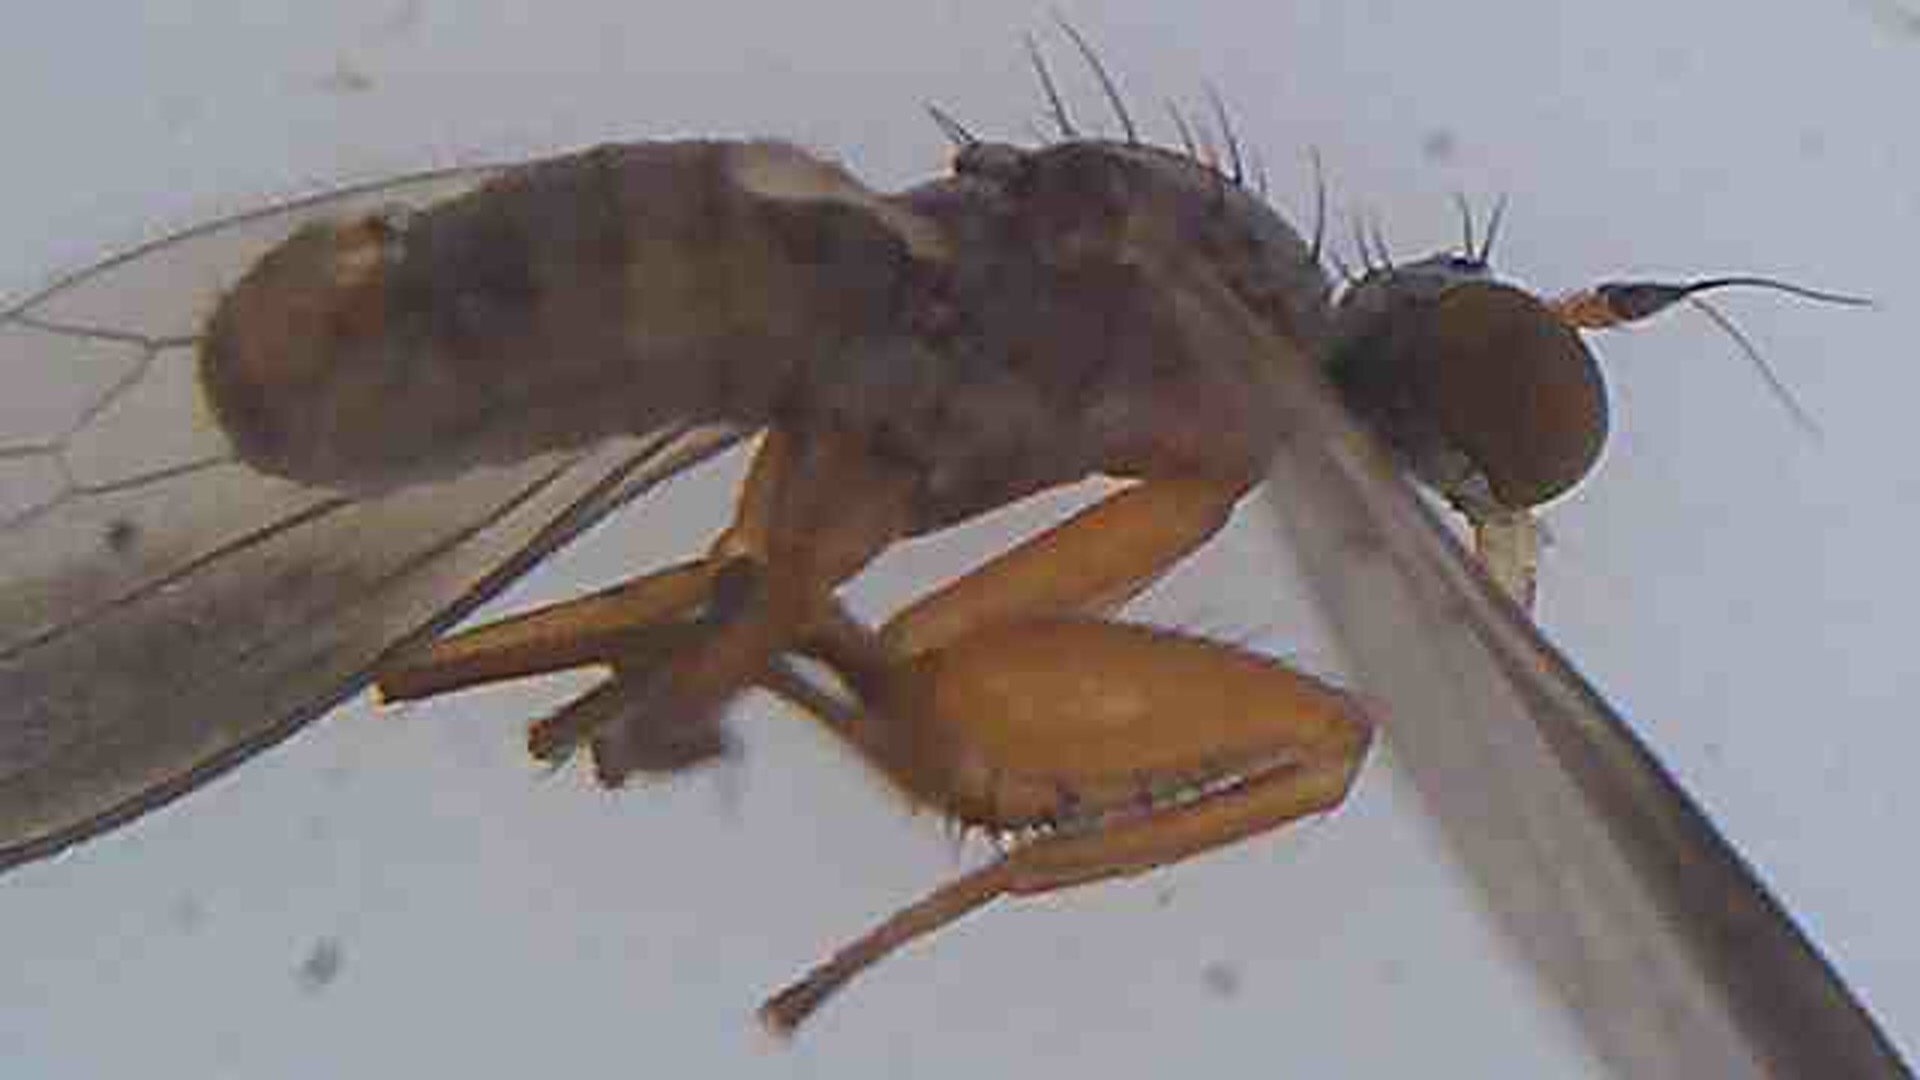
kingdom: Animalia
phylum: Arthropoda
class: Insecta
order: Diptera
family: Empididae
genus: Chelipoda
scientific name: Chelipoda fuscoptera
